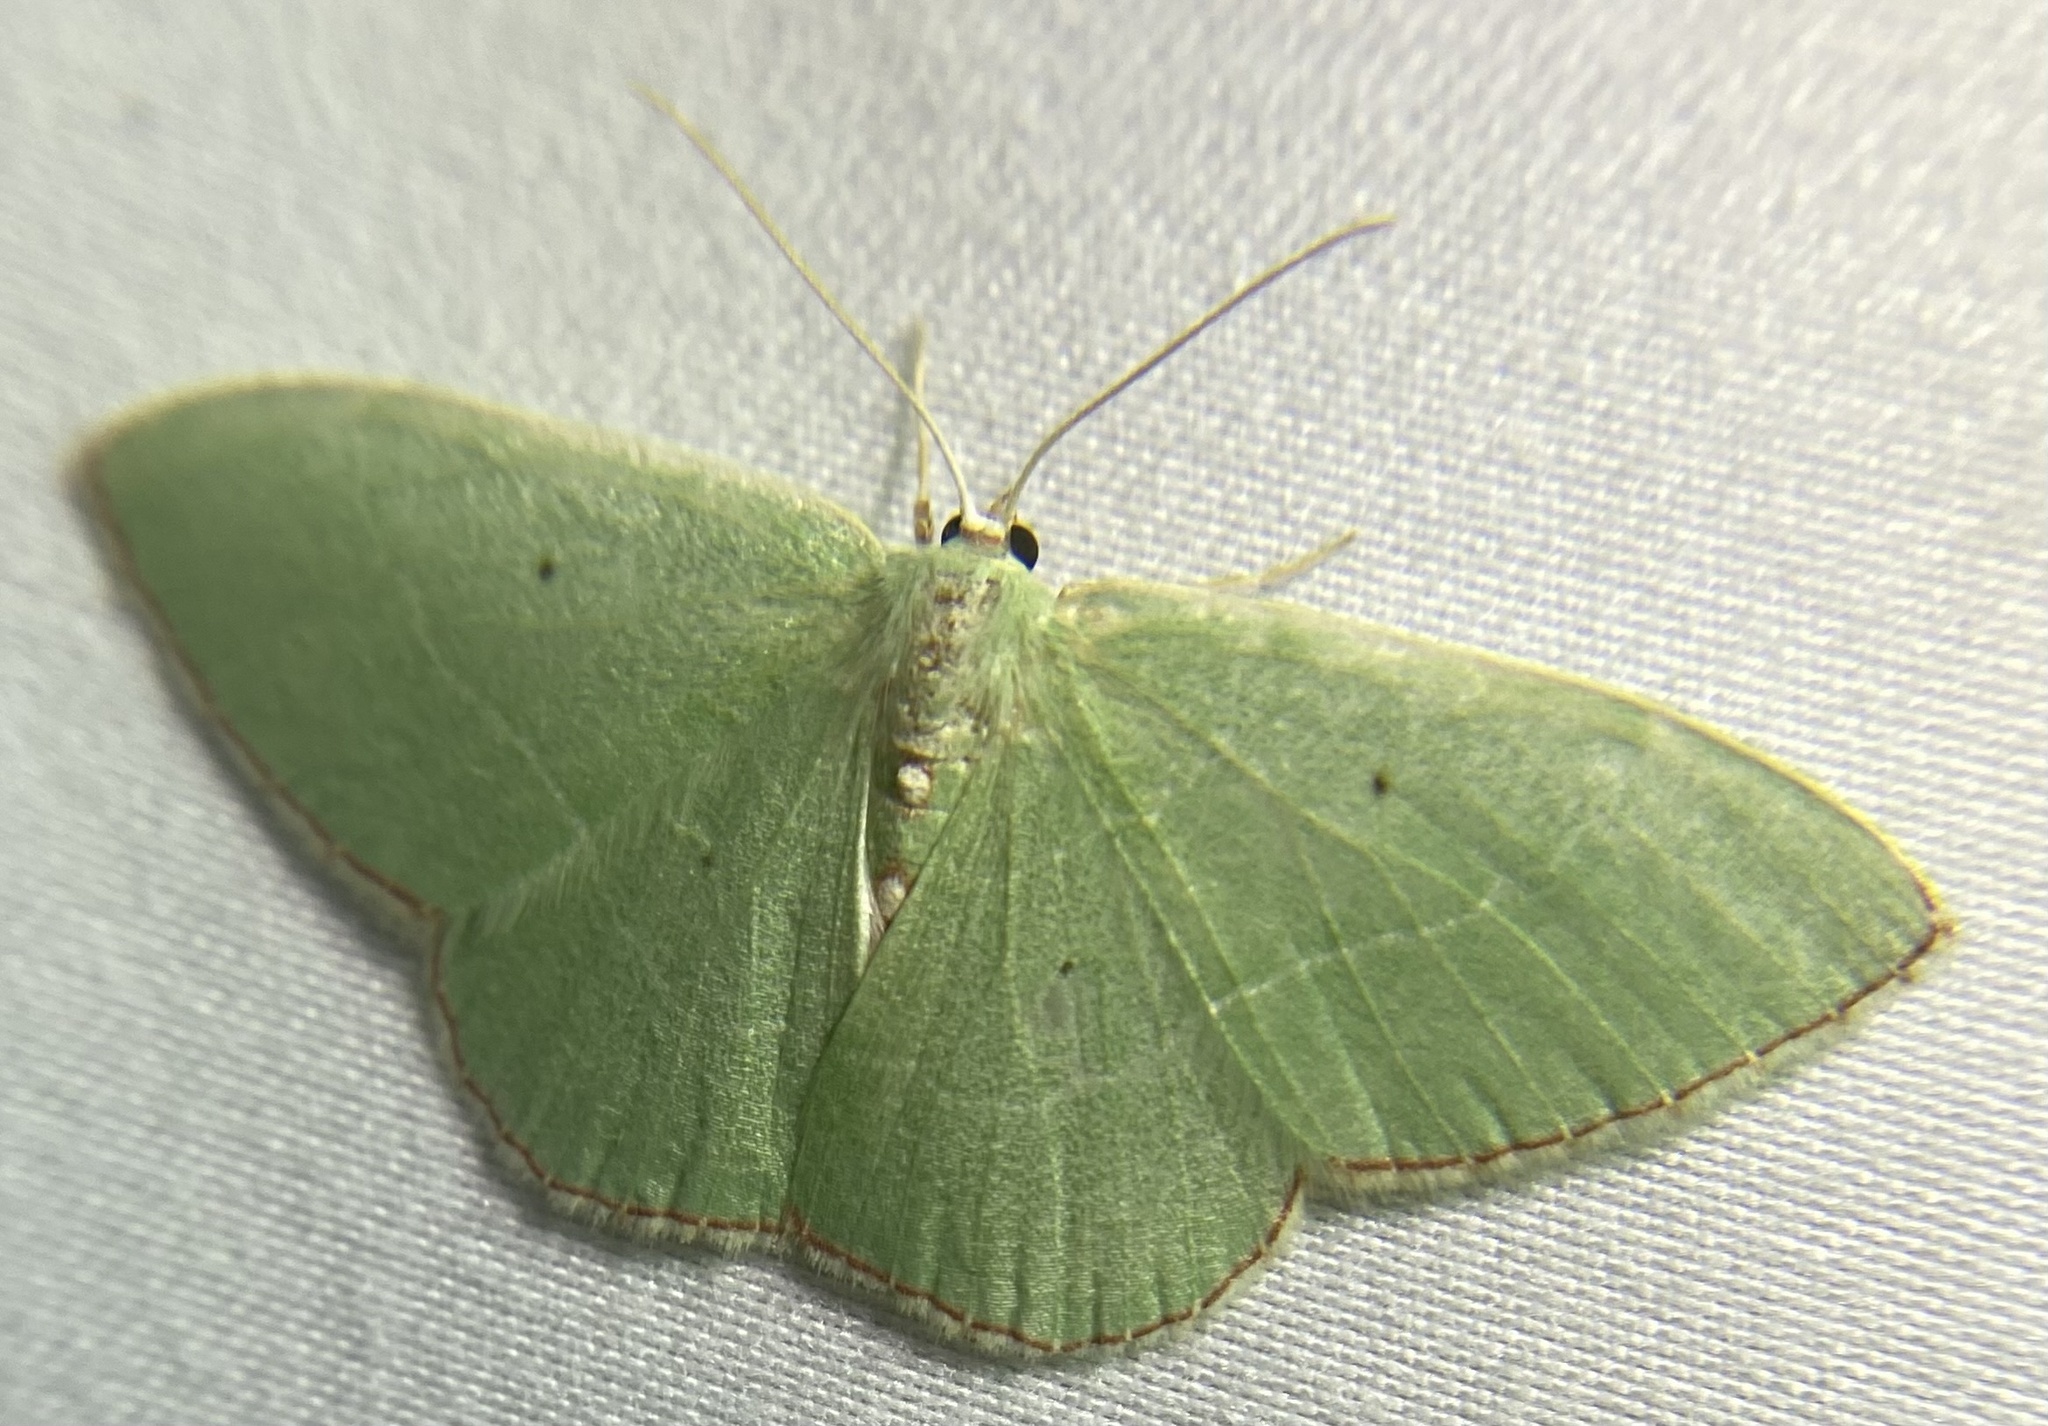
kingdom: Animalia
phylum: Arthropoda
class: Insecta
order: Lepidoptera
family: Geometridae
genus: Nemoria
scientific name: Nemoria lixaria
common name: Red-bordered emerald
